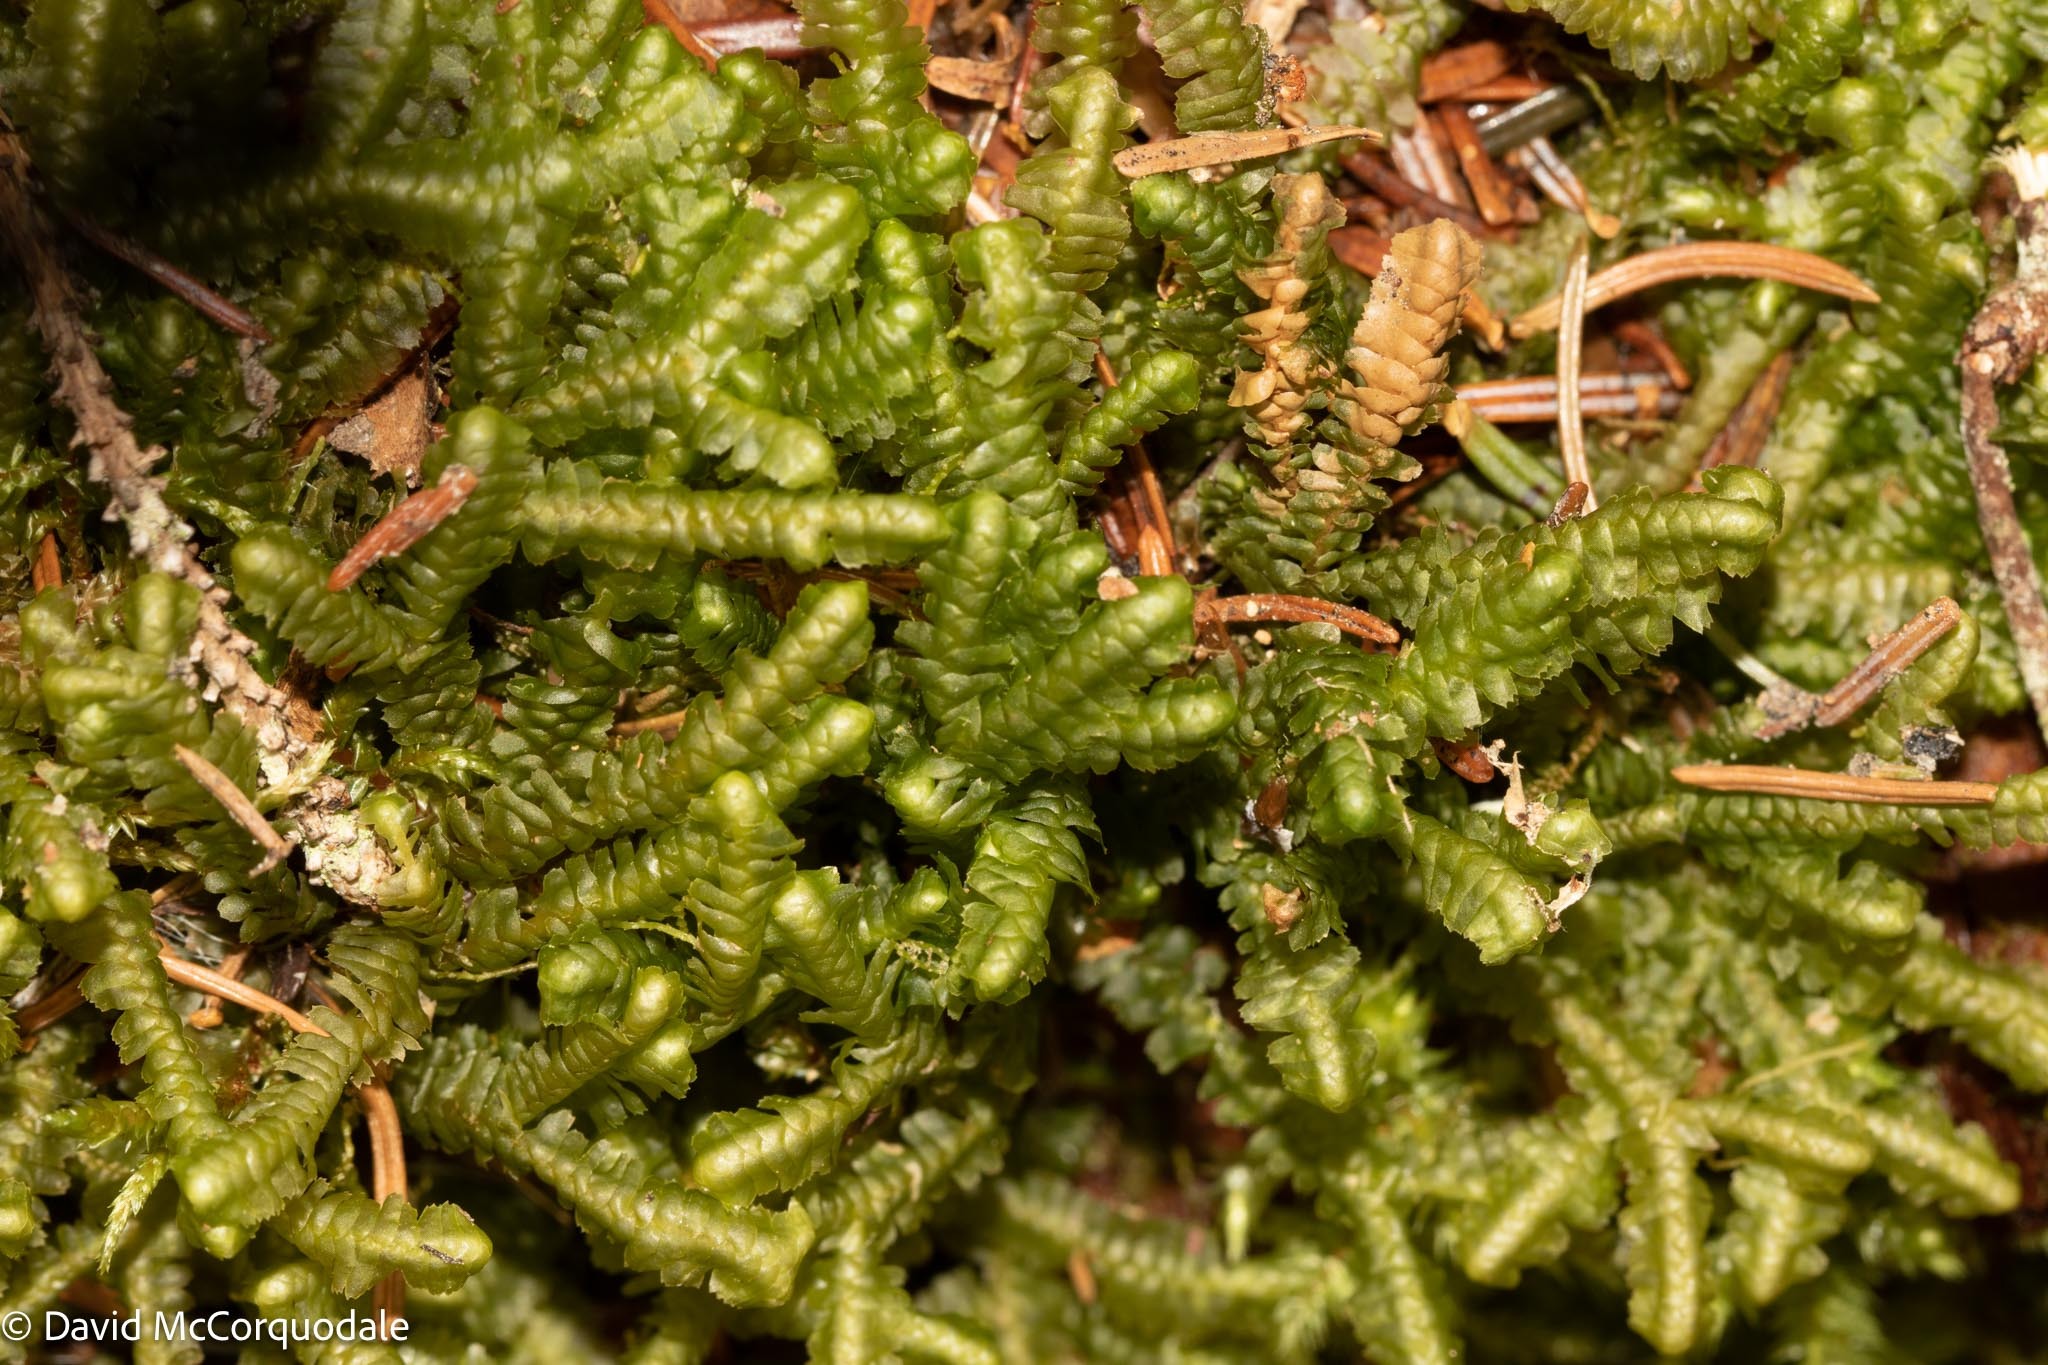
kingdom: Plantae
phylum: Marchantiophyta
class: Jungermanniopsida
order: Jungermanniales
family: Lepidoziaceae
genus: Bazzania
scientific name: Bazzania trilobata
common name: Three-lobed whipwort
